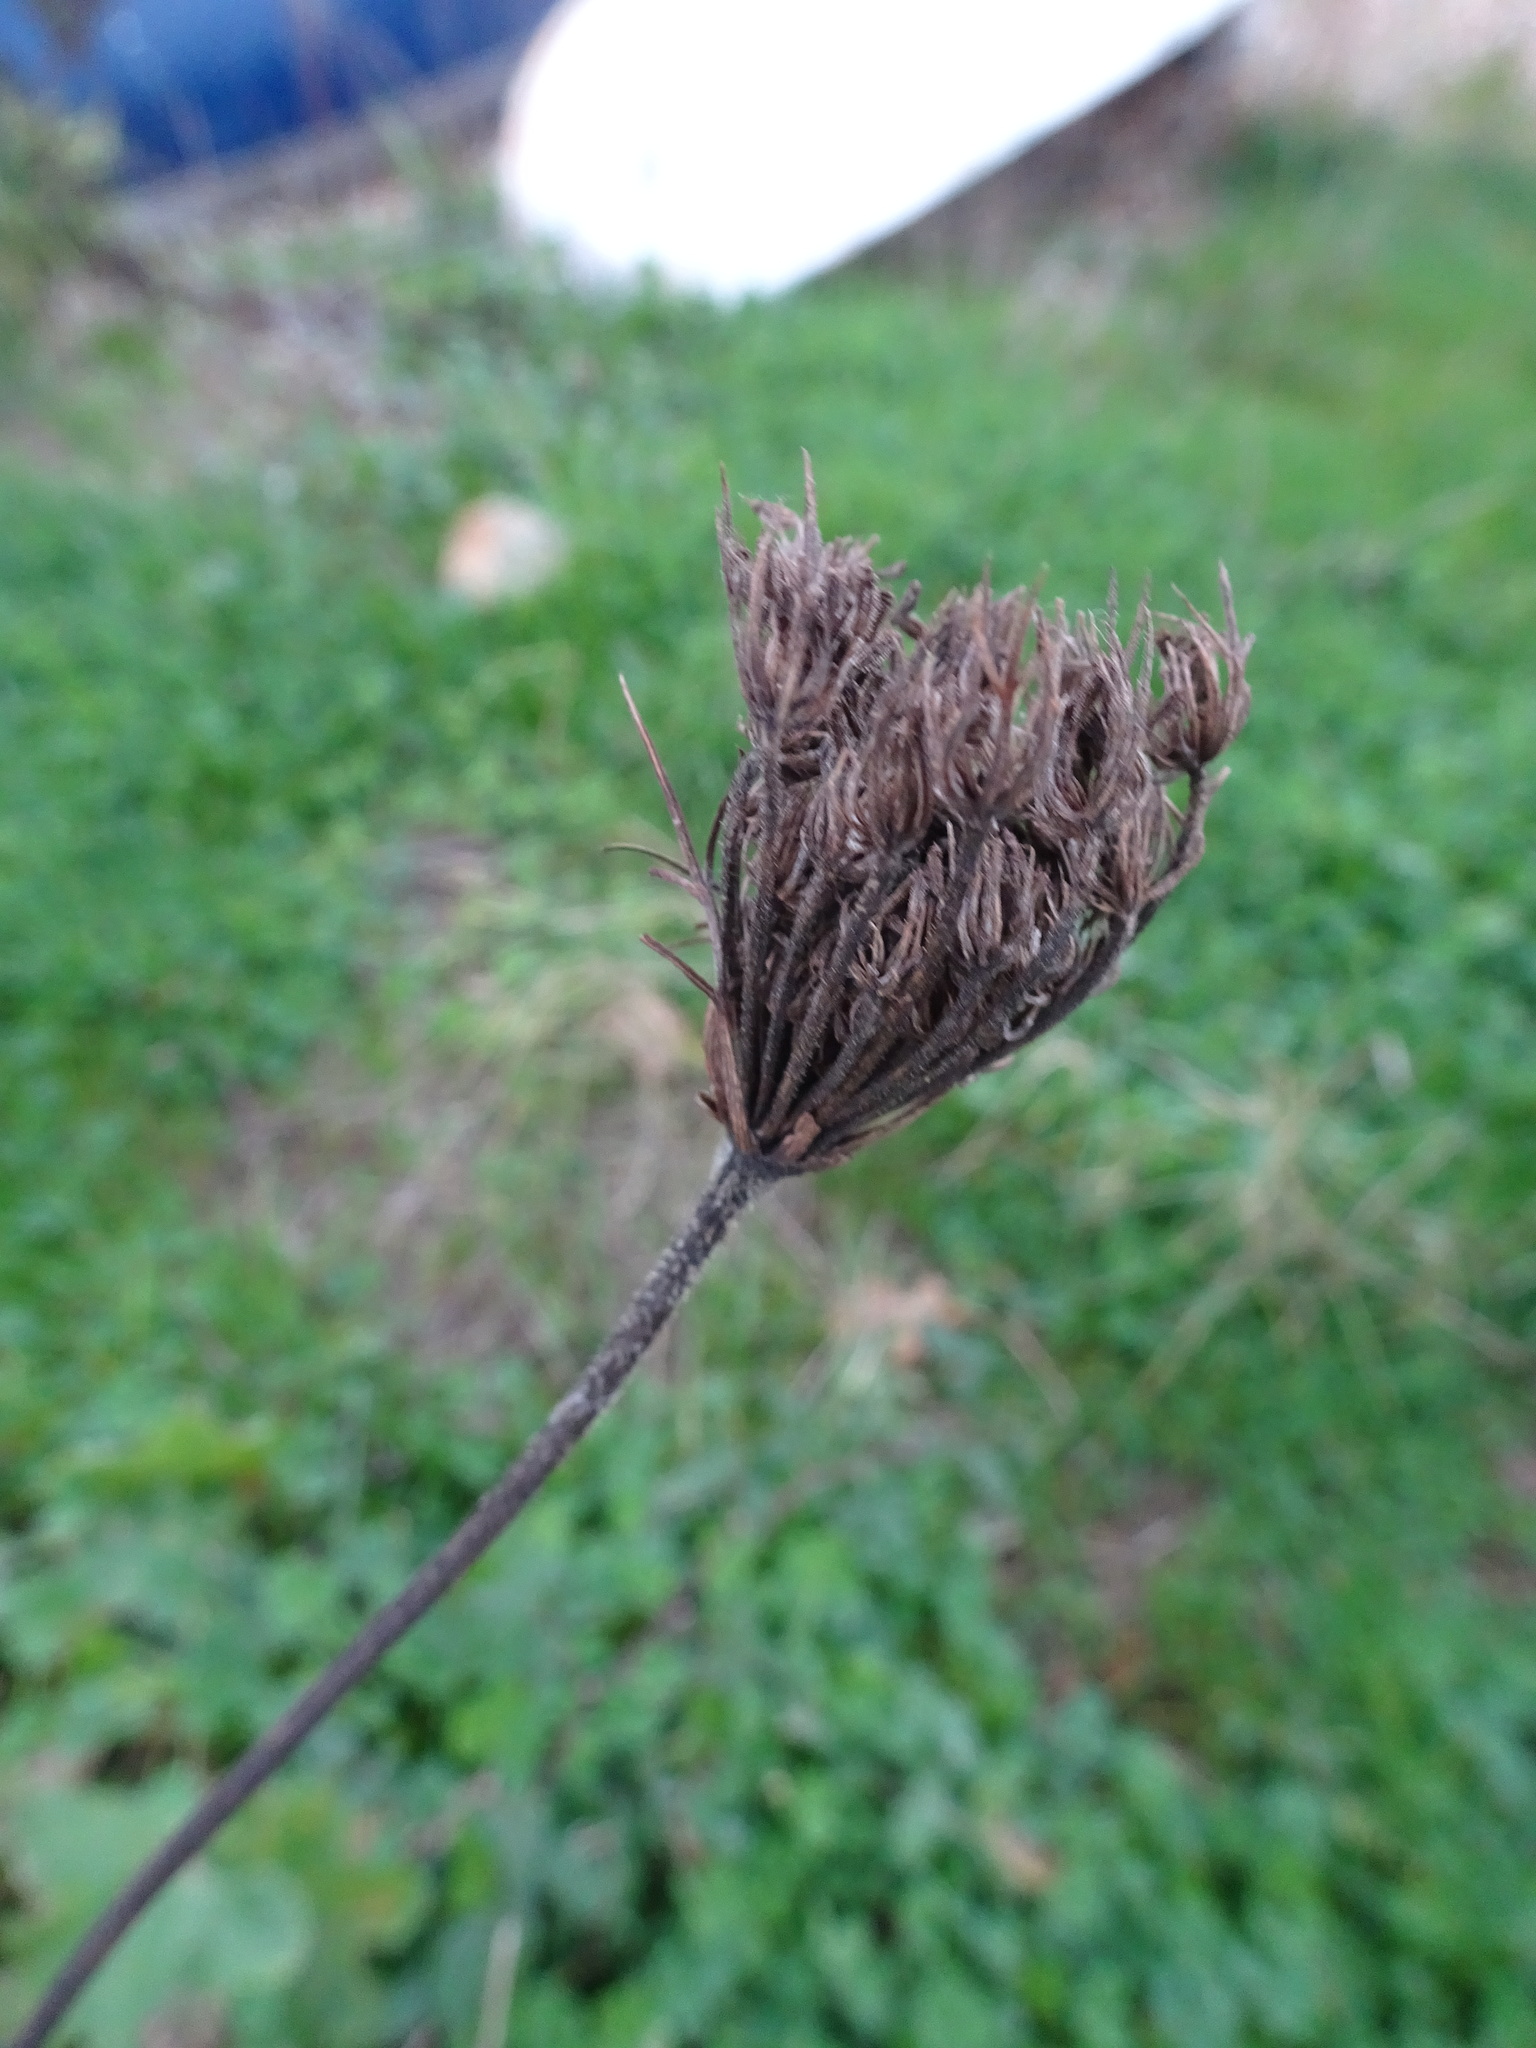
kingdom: Plantae
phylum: Tracheophyta
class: Magnoliopsida
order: Apiales
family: Apiaceae
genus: Daucus
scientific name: Daucus carota
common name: Wild carrot
